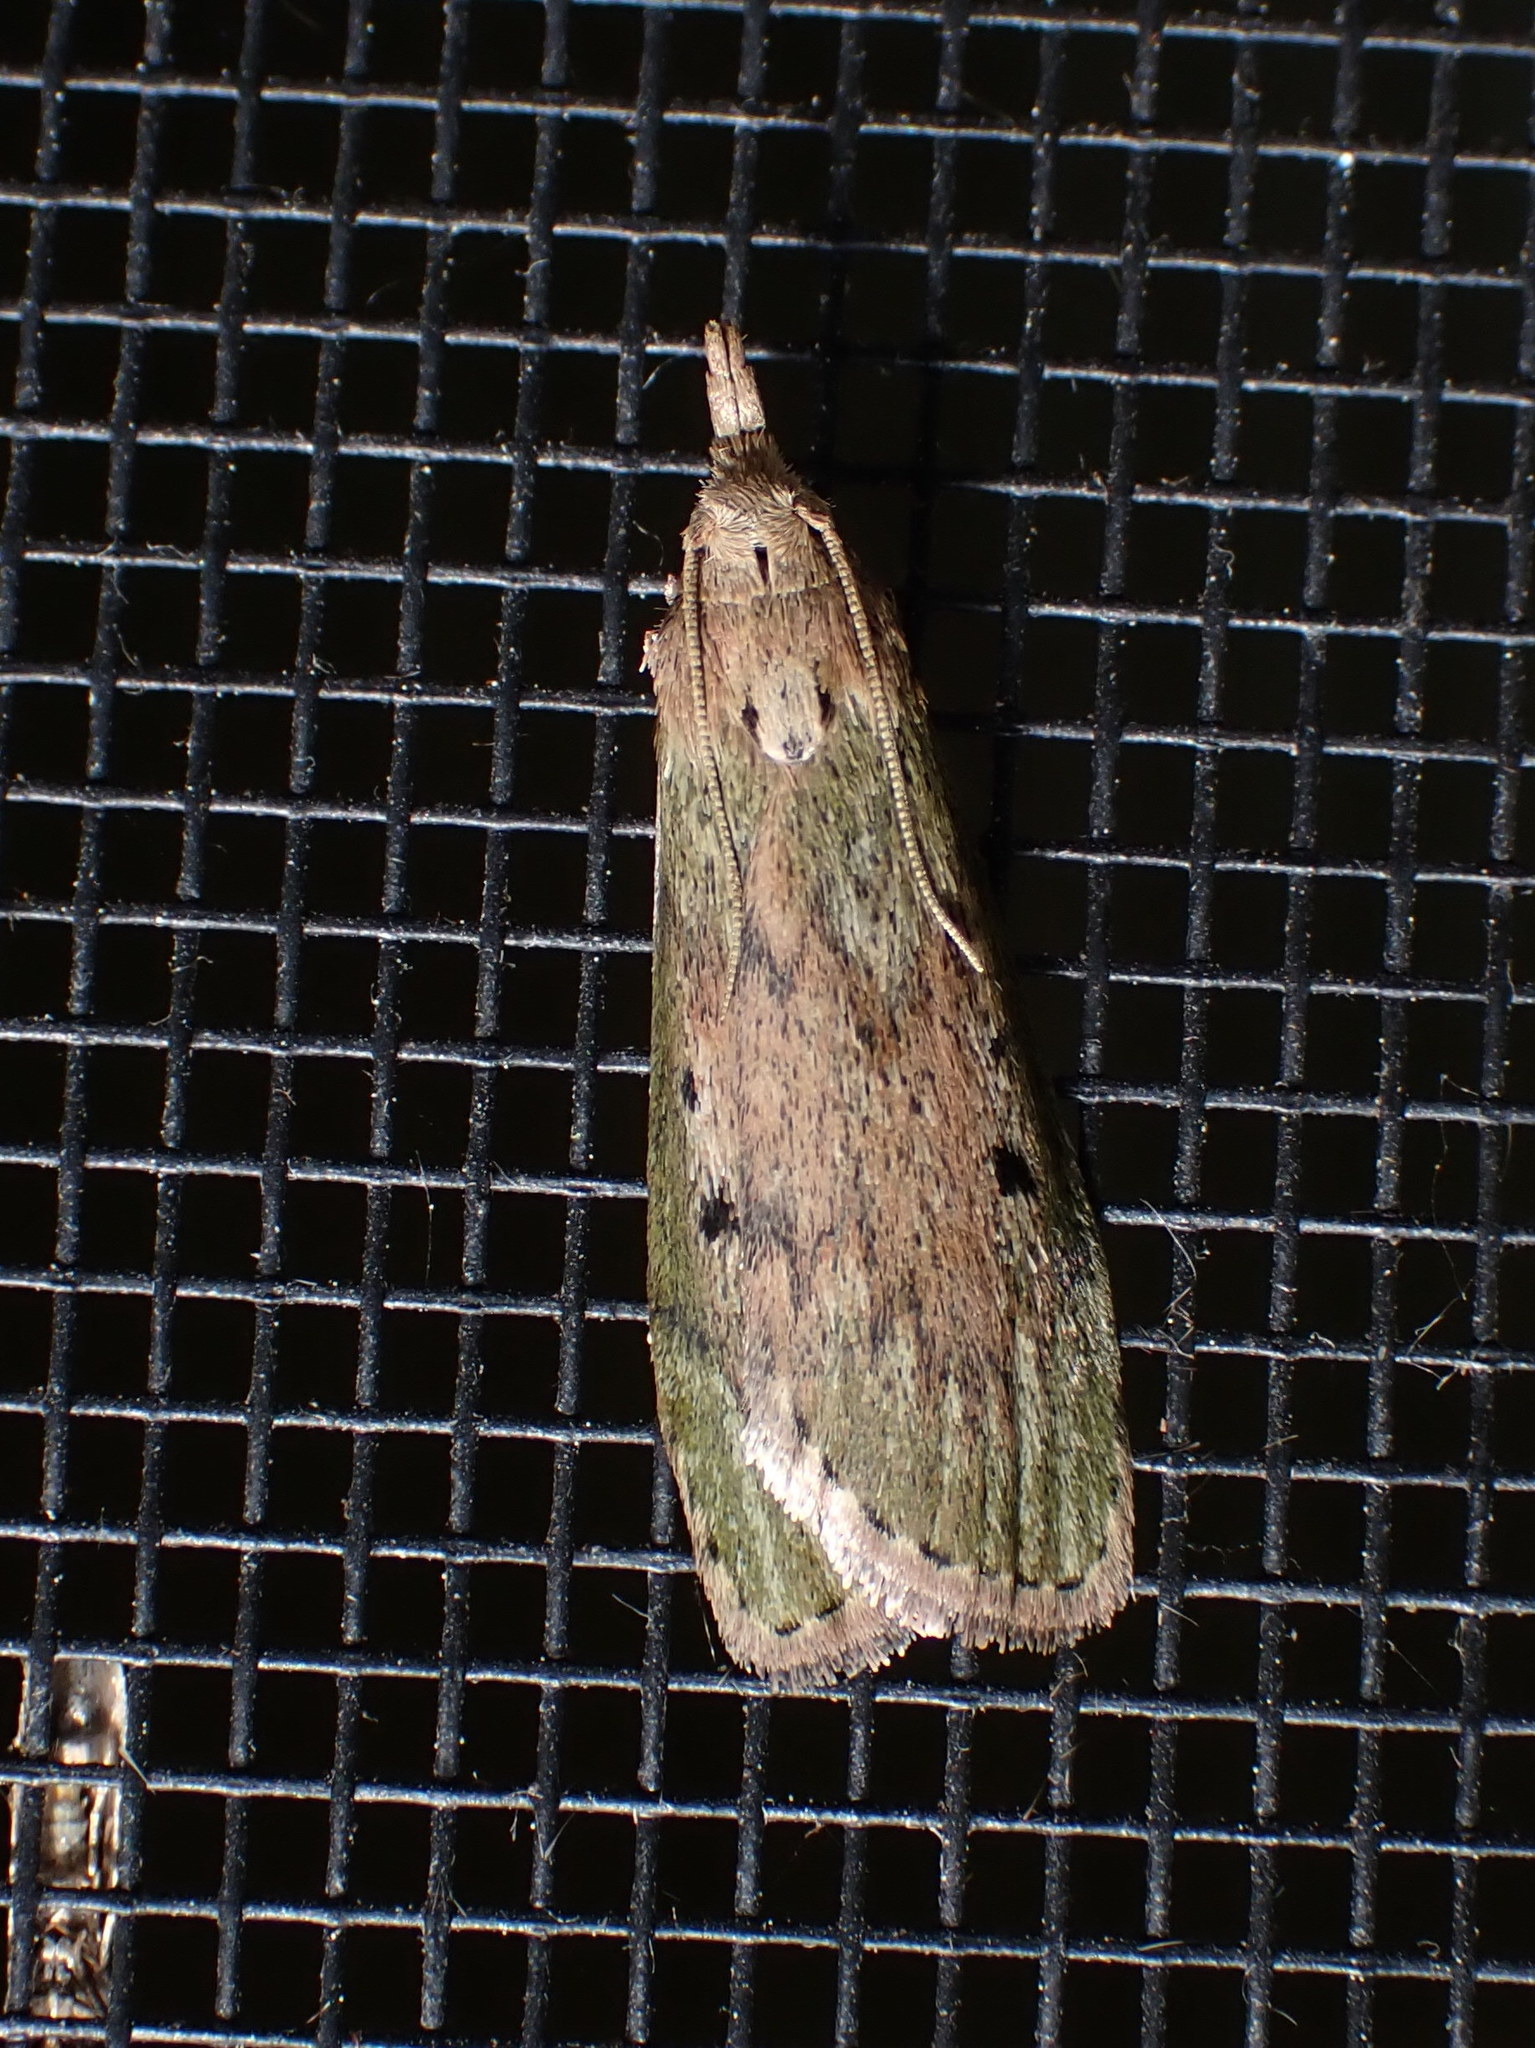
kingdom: Animalia
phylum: Arthropoda
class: Insecta
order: Lepidoptera
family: Pyralidae
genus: Aphomia
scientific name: Aphomia sociella
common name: Bee moth
